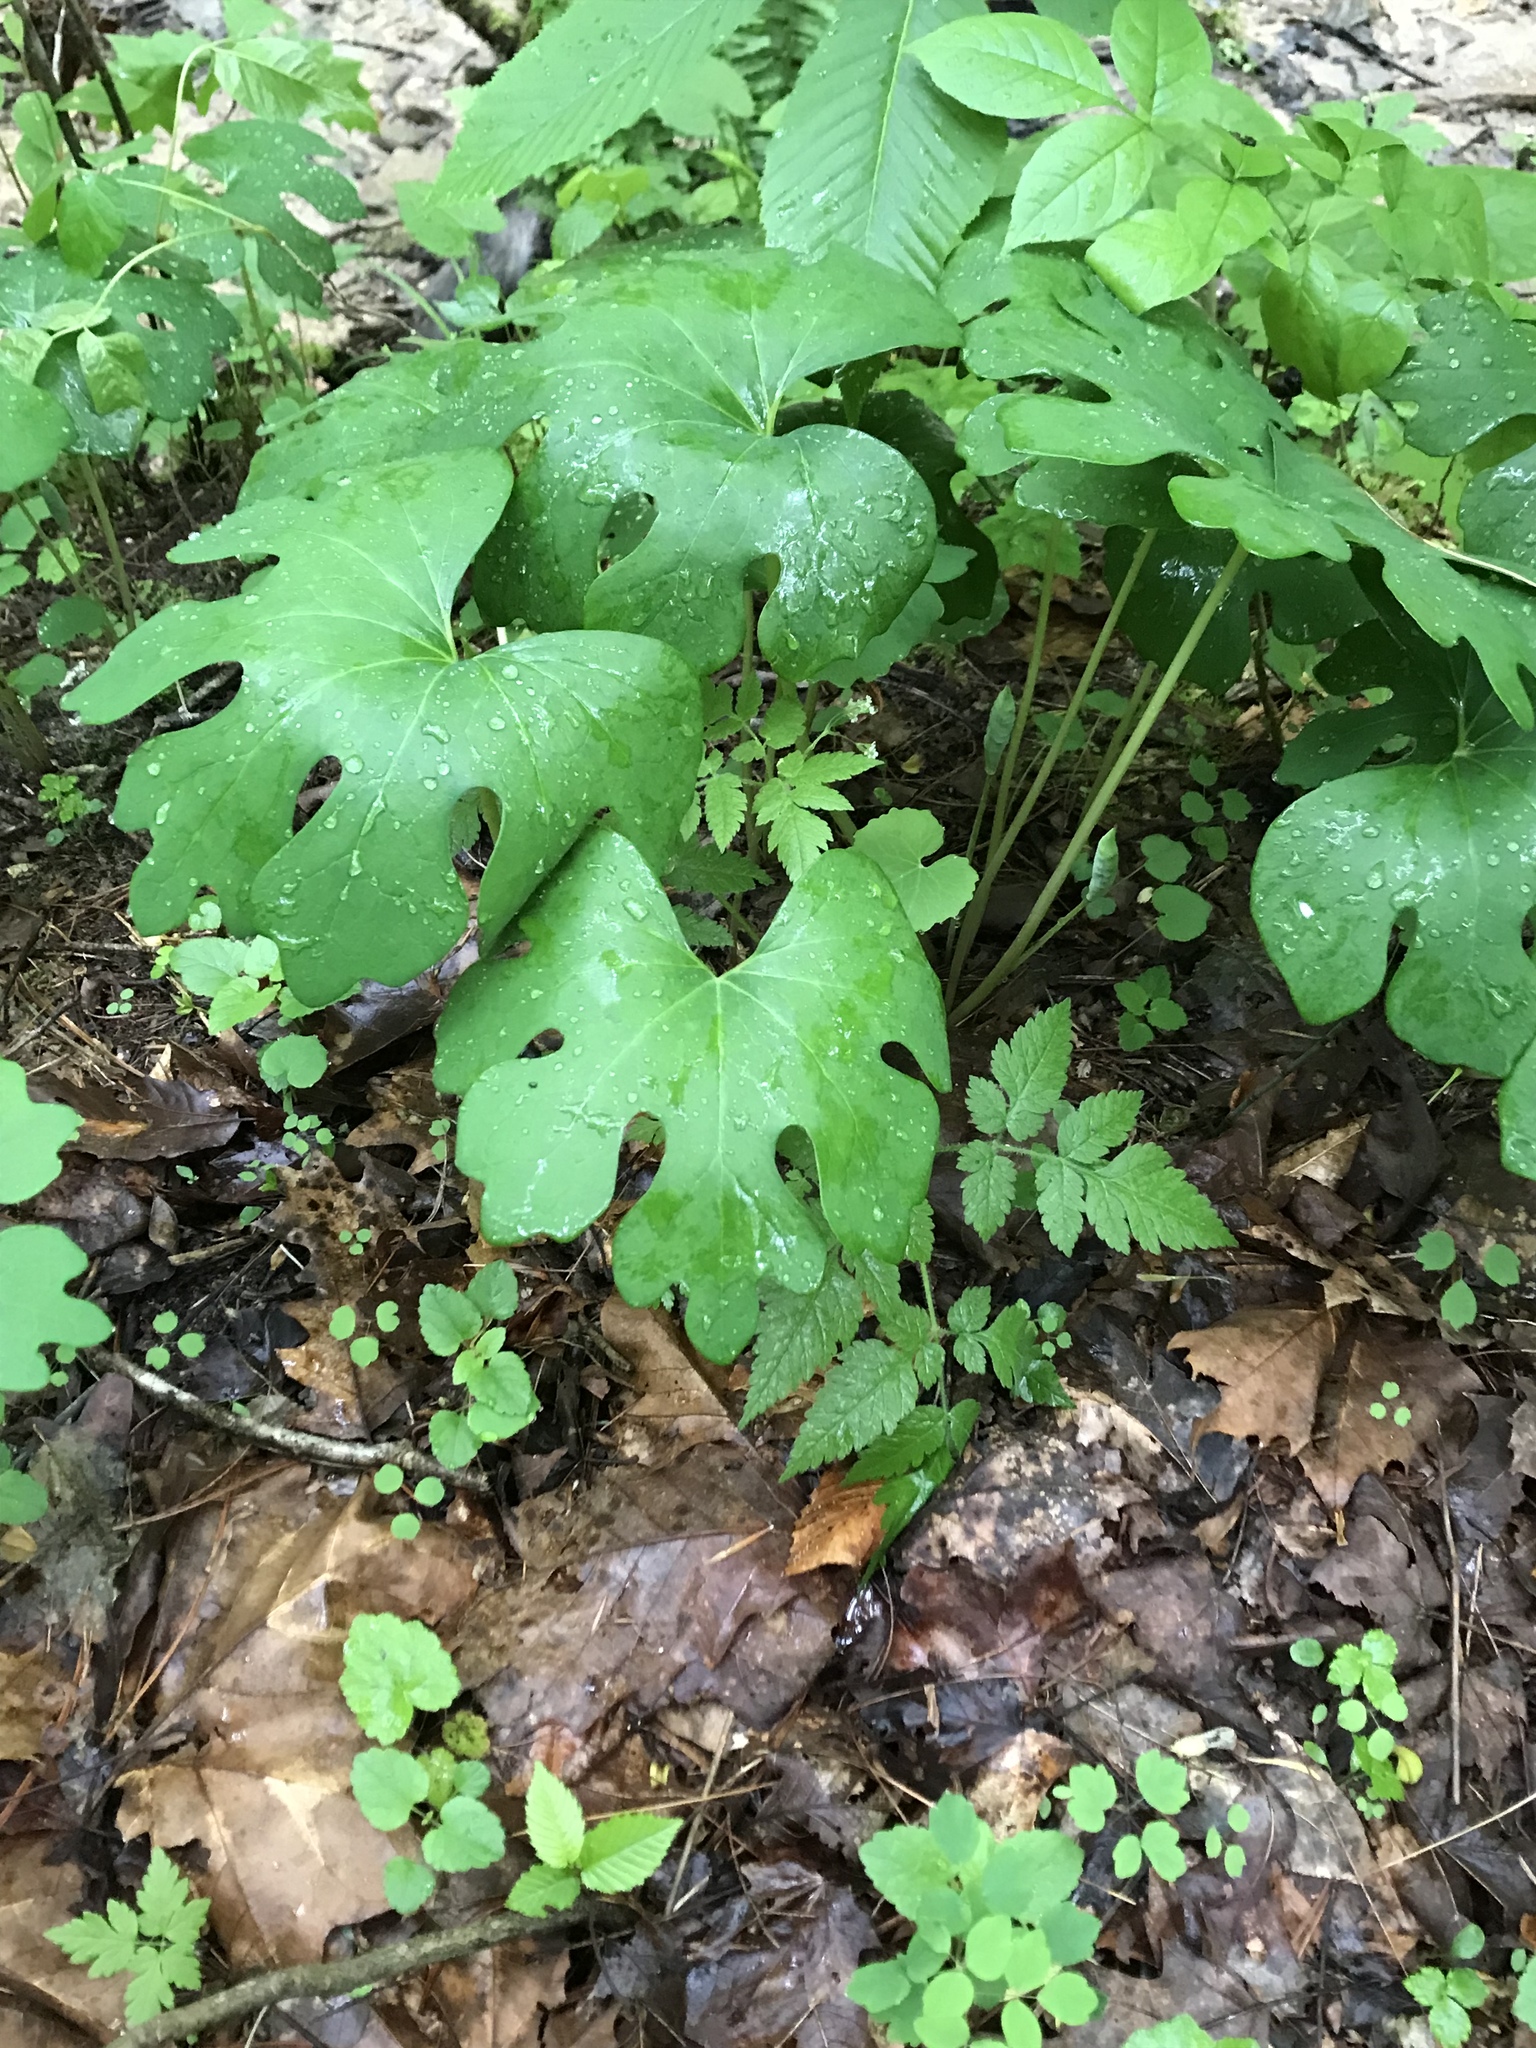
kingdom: Plantae
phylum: Tracheophyta
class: Magnoliopsida
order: Ranunculales
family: Papaveraceae
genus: Sanguinaria
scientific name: Sanguinaria canadensis
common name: Bloodroot
